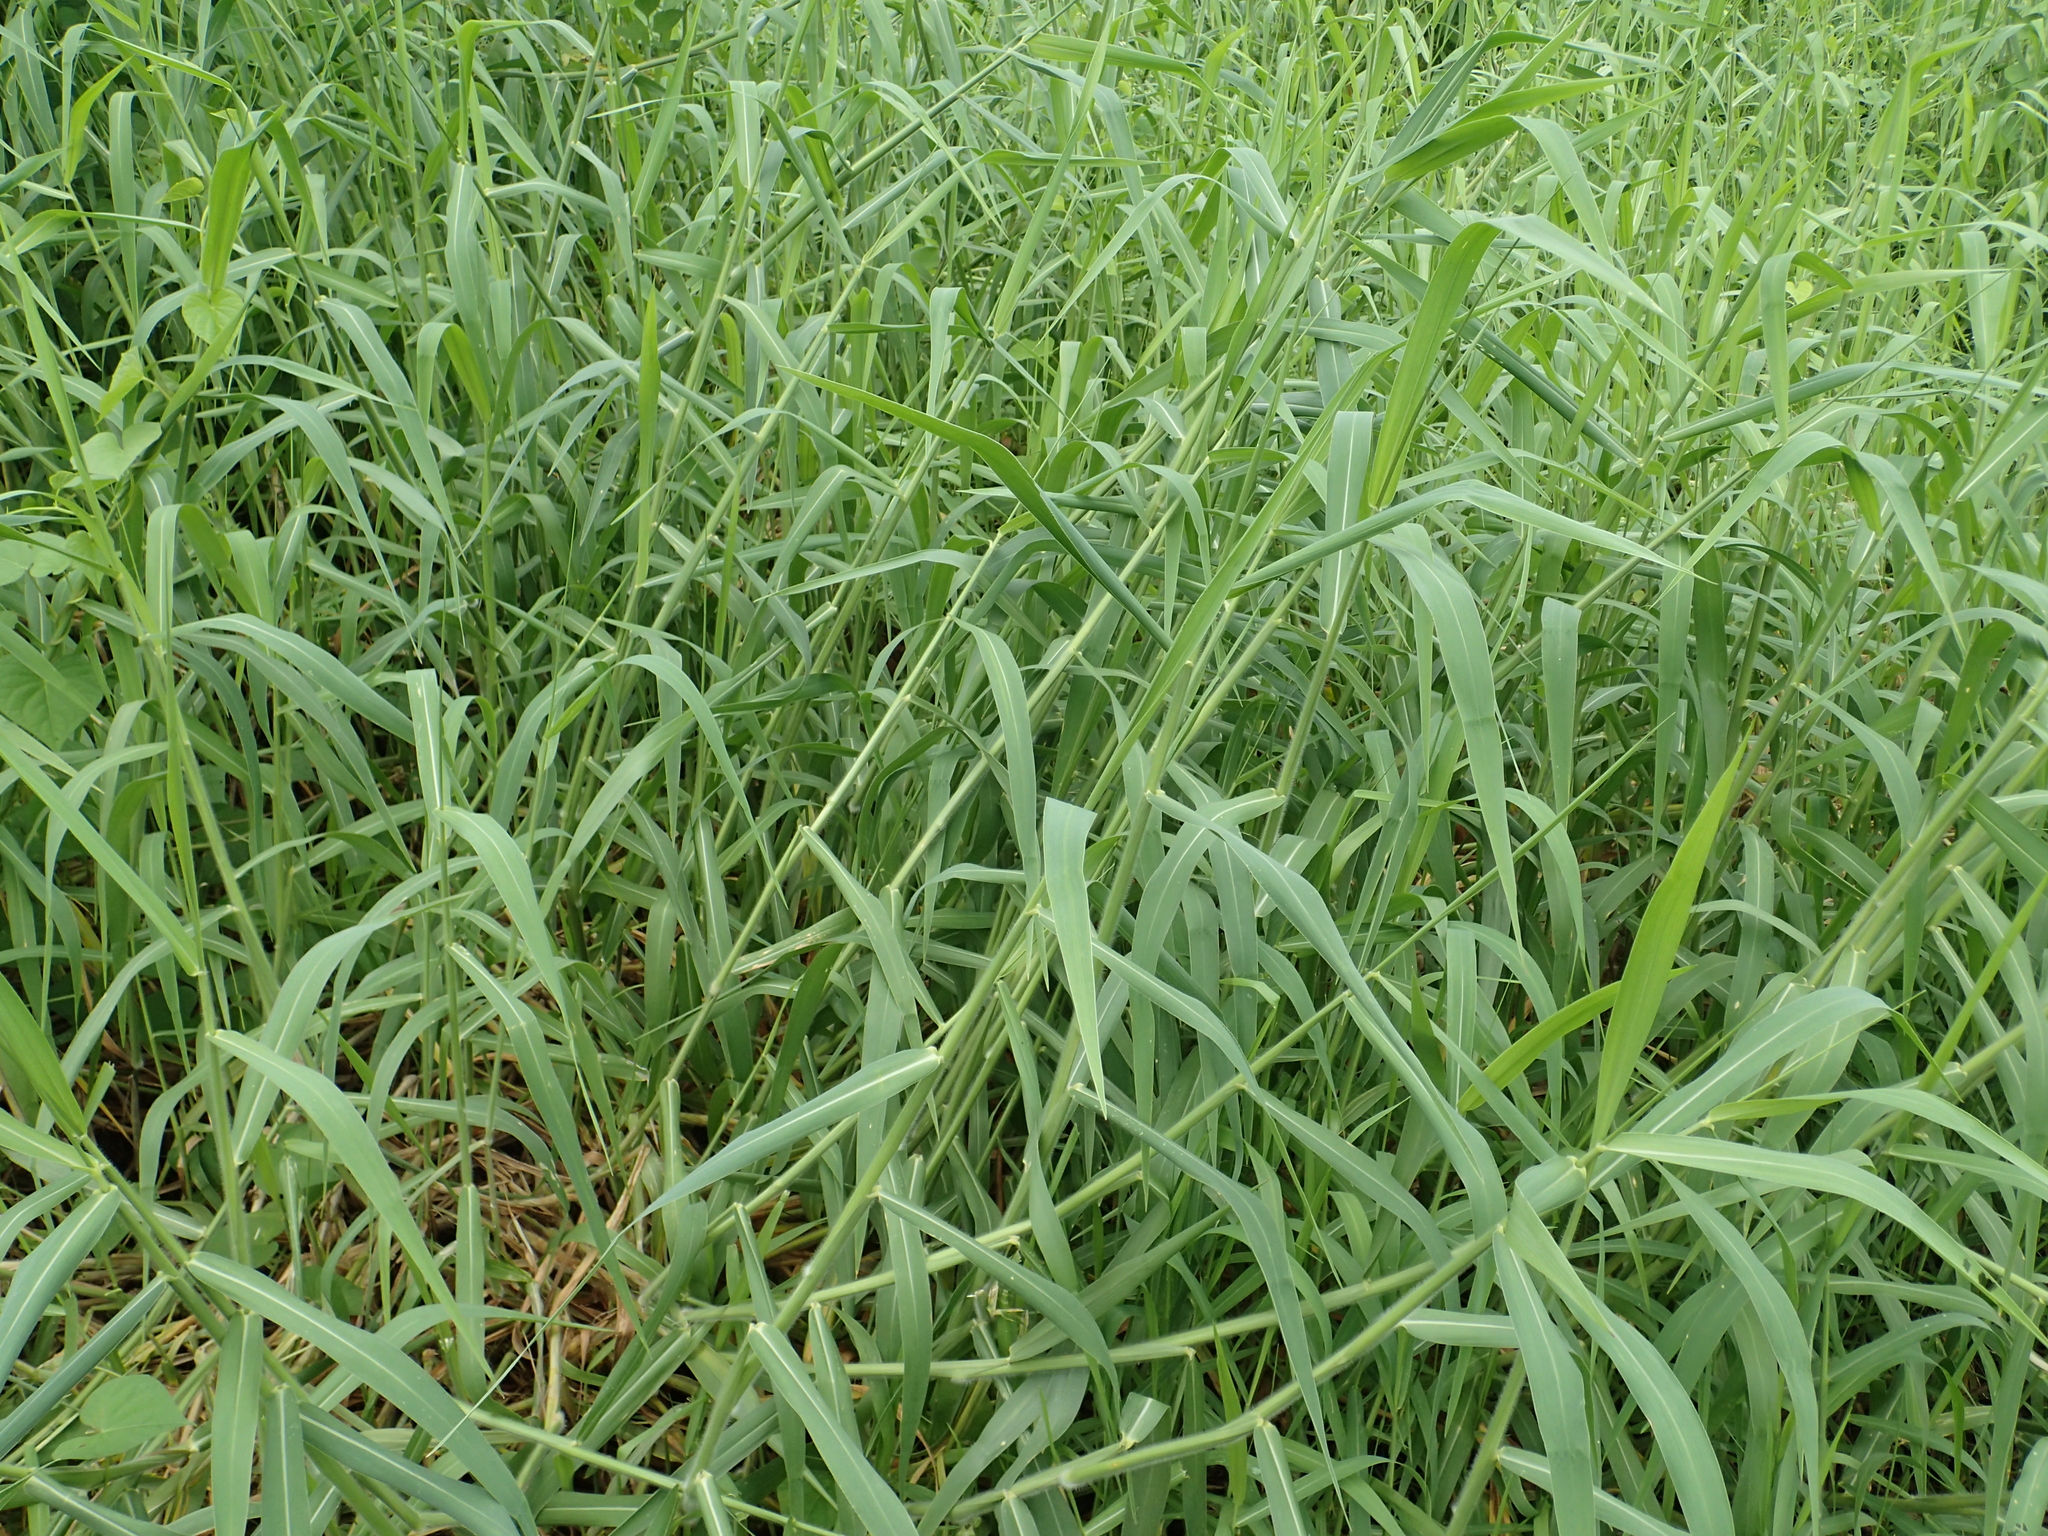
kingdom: Plantae
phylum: Tracheophyta
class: Liliopsida
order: Poales
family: Poaceae
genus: Urochloa
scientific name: Urochloa mutica
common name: Para grass
